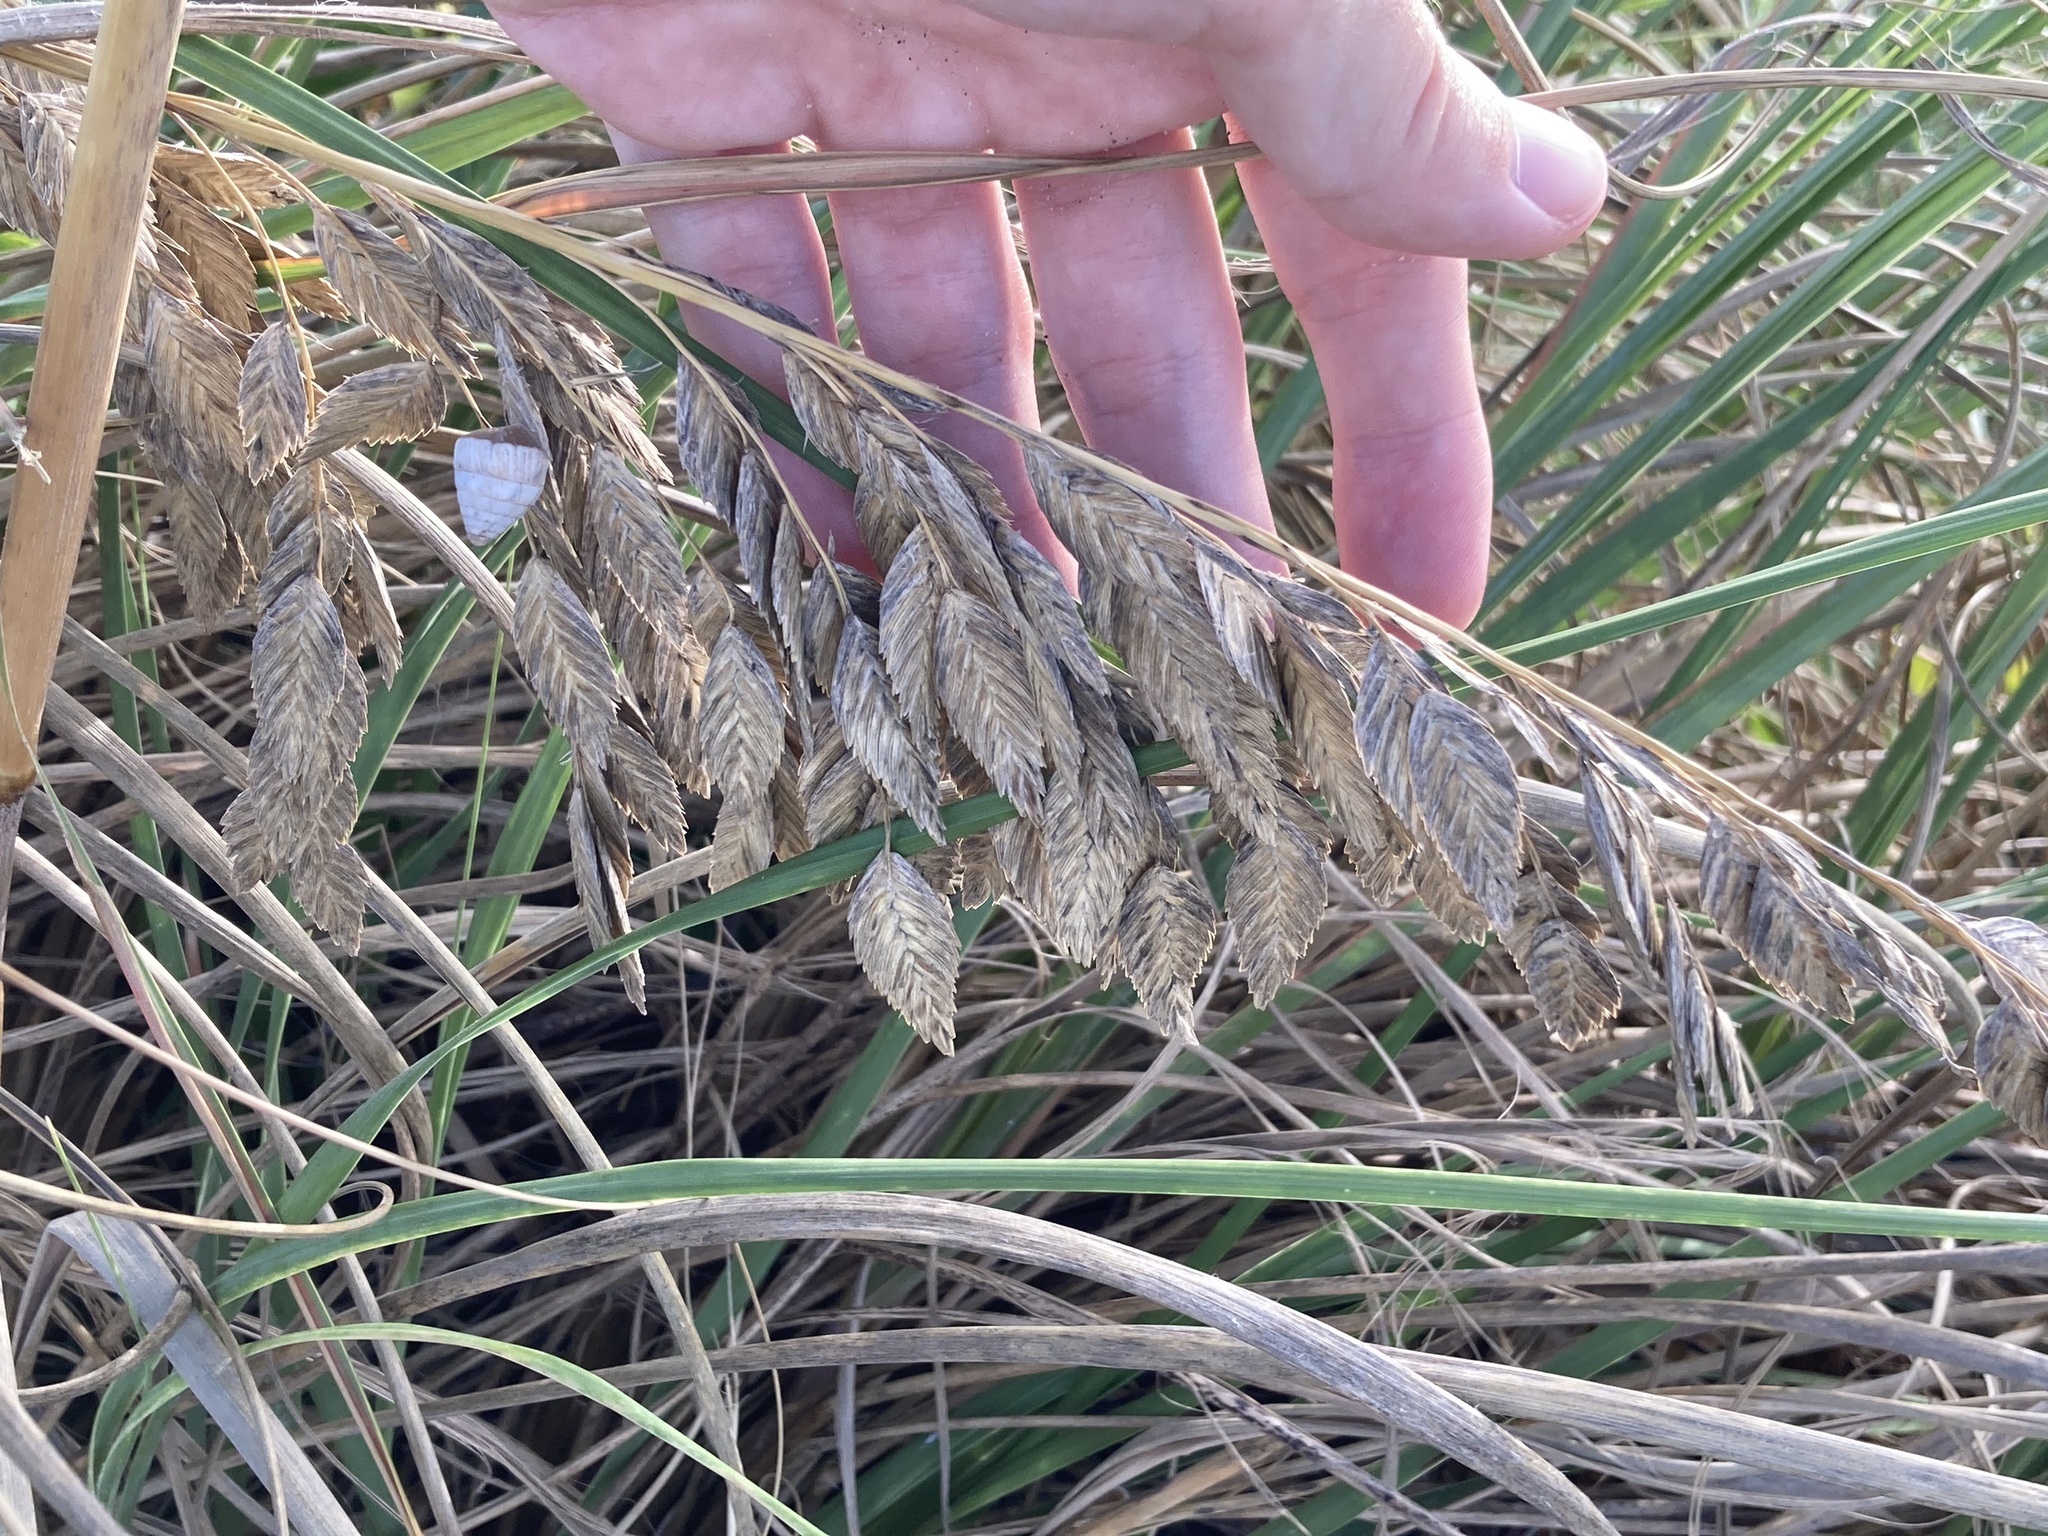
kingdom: Plantae
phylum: Tracheophyta
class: Liliopsida
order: Poales
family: Poaceae
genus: Uniola
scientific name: Uniola paniculata
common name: Seaside-oats
